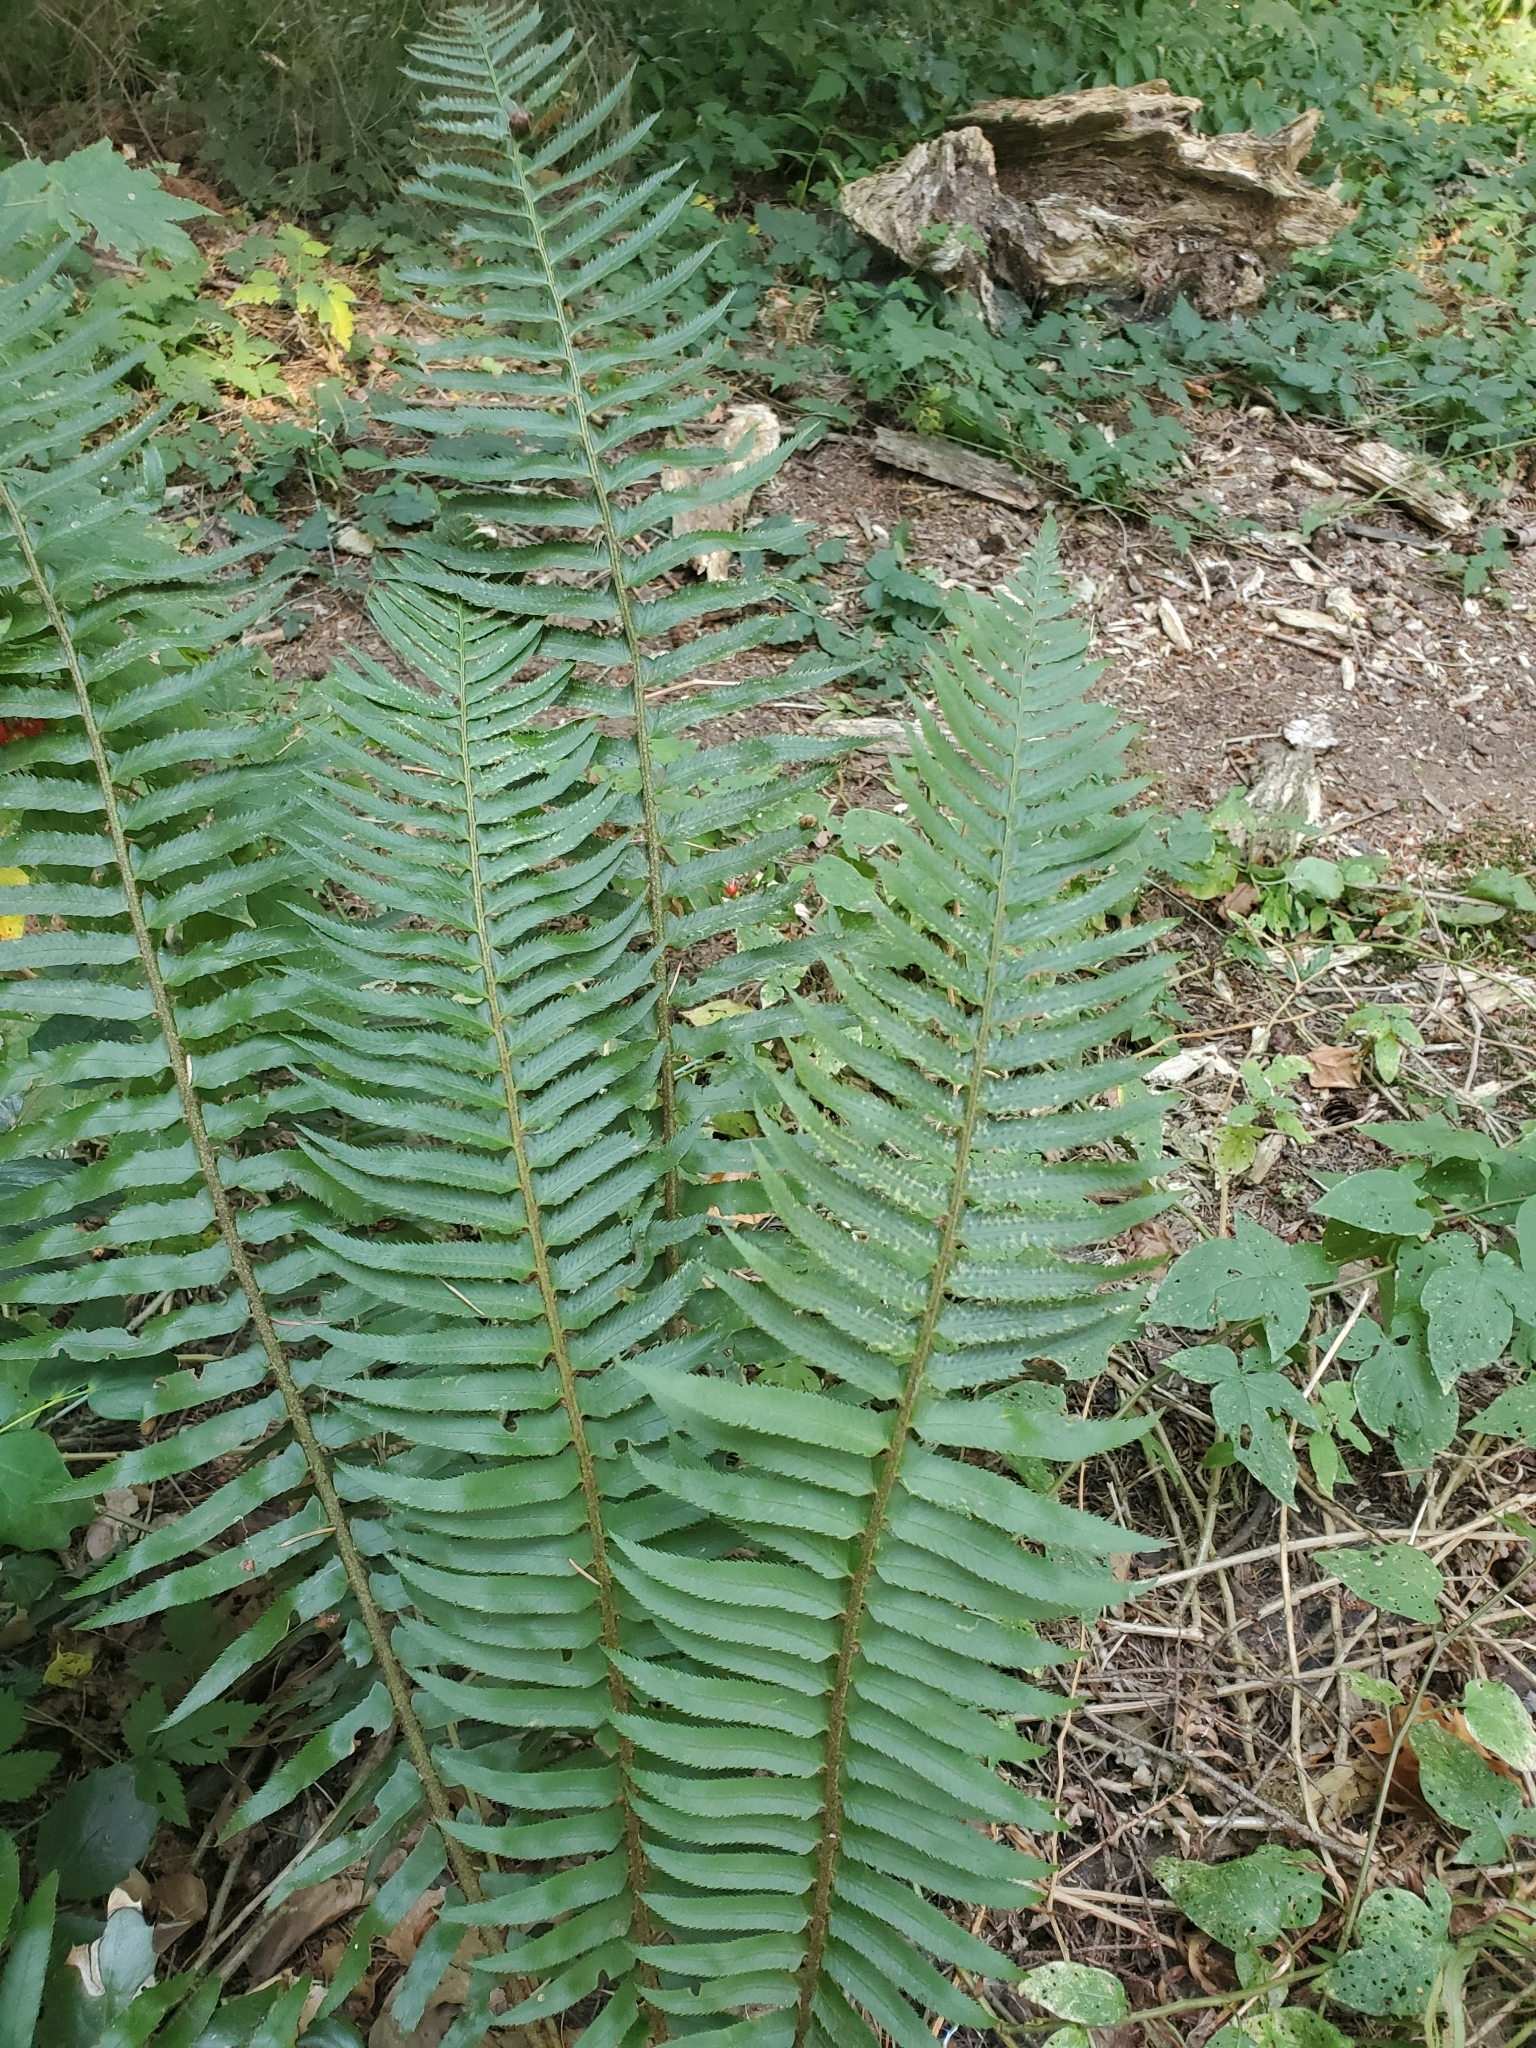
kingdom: Plantae
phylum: Tracheophyta
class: Polypodiopsida
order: Polypodiales
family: Dryopteridaceae
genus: Polystichum
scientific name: Polystichum munitum
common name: Western sword-fern
